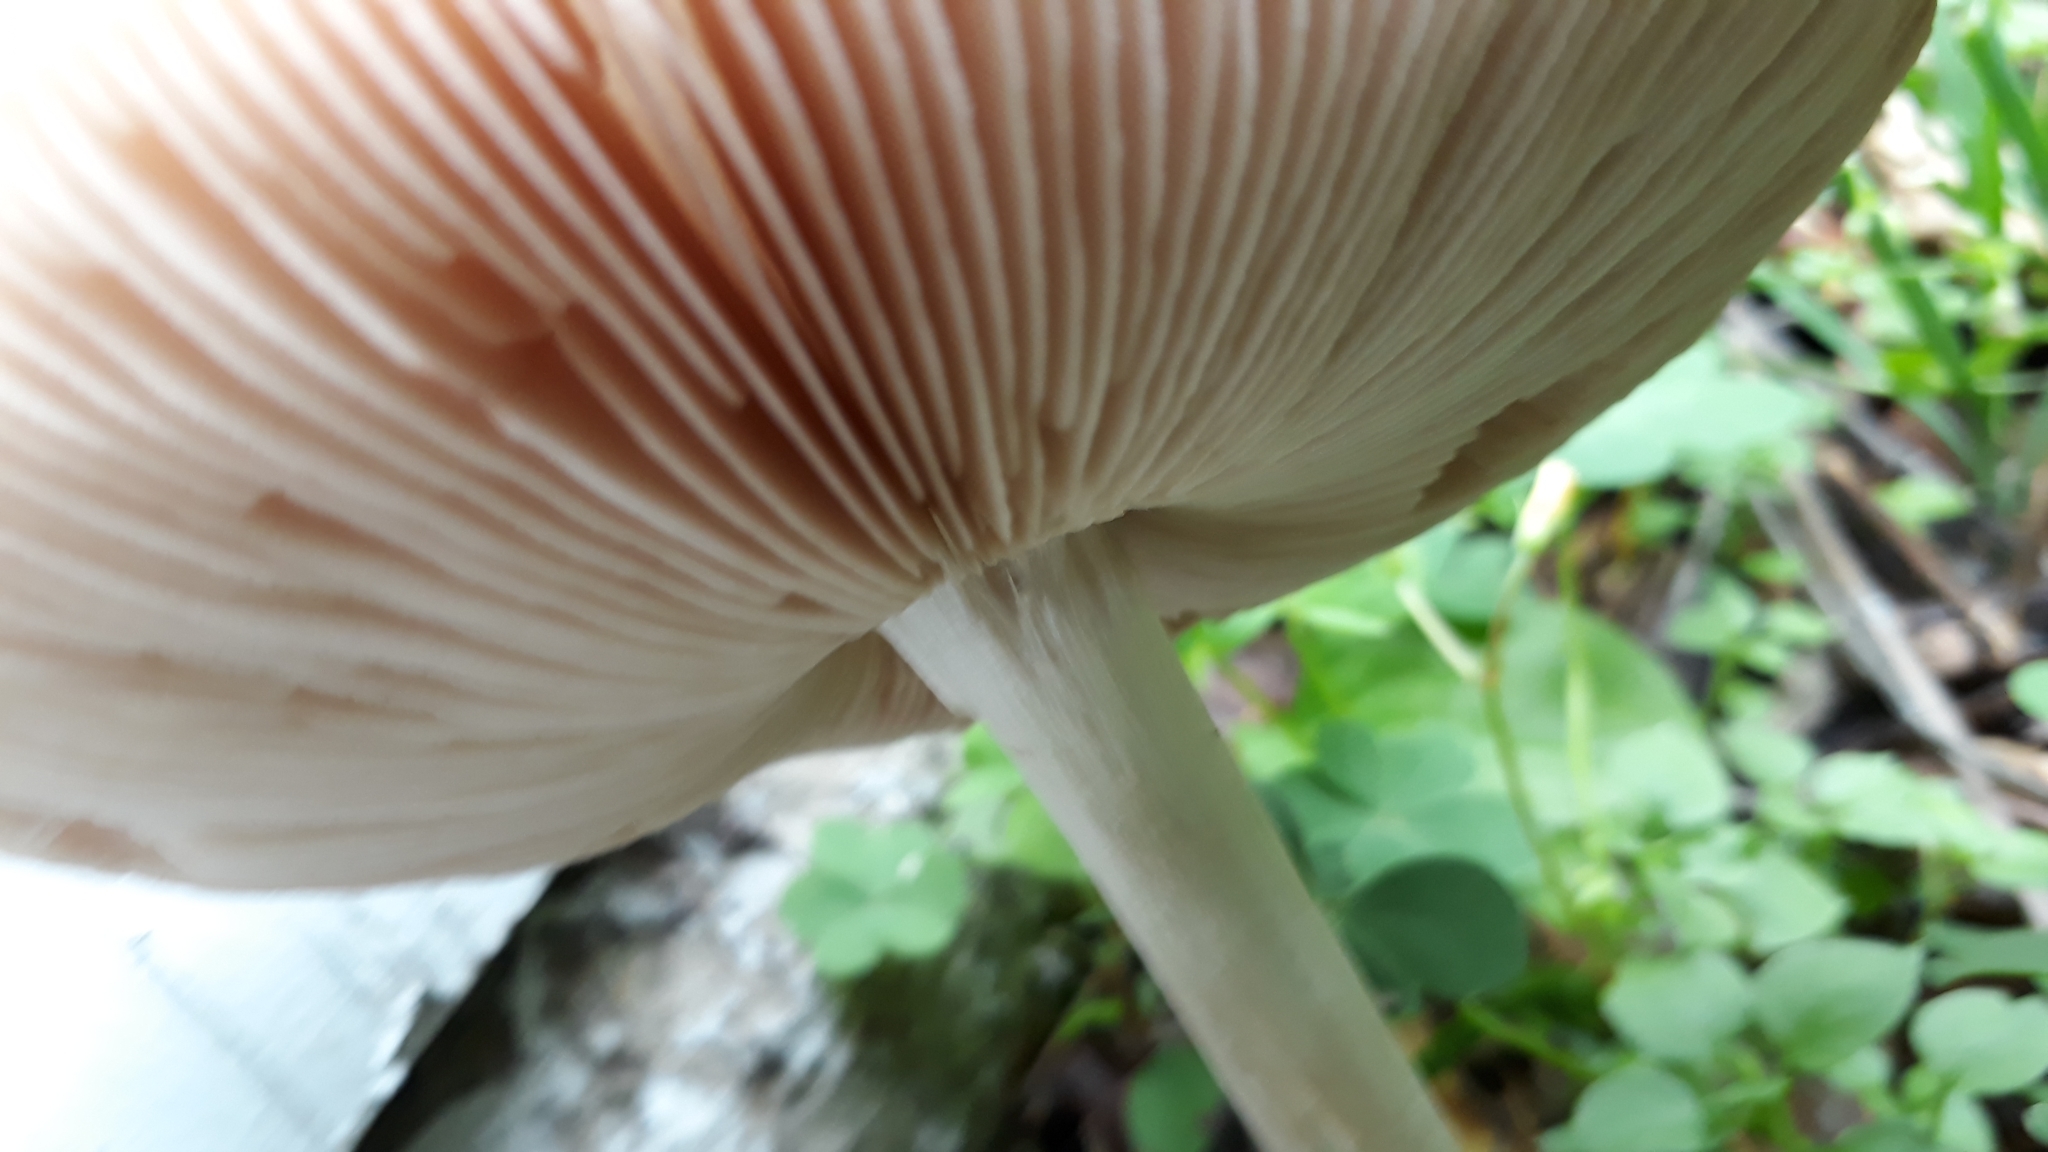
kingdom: Fungi
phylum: Basidiomycota
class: Agaricomycetes
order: Agaricales
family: Pluteaceae
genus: Volvopluteus
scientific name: Volvopluteus gloiocephalus
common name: Stubble rosegill
